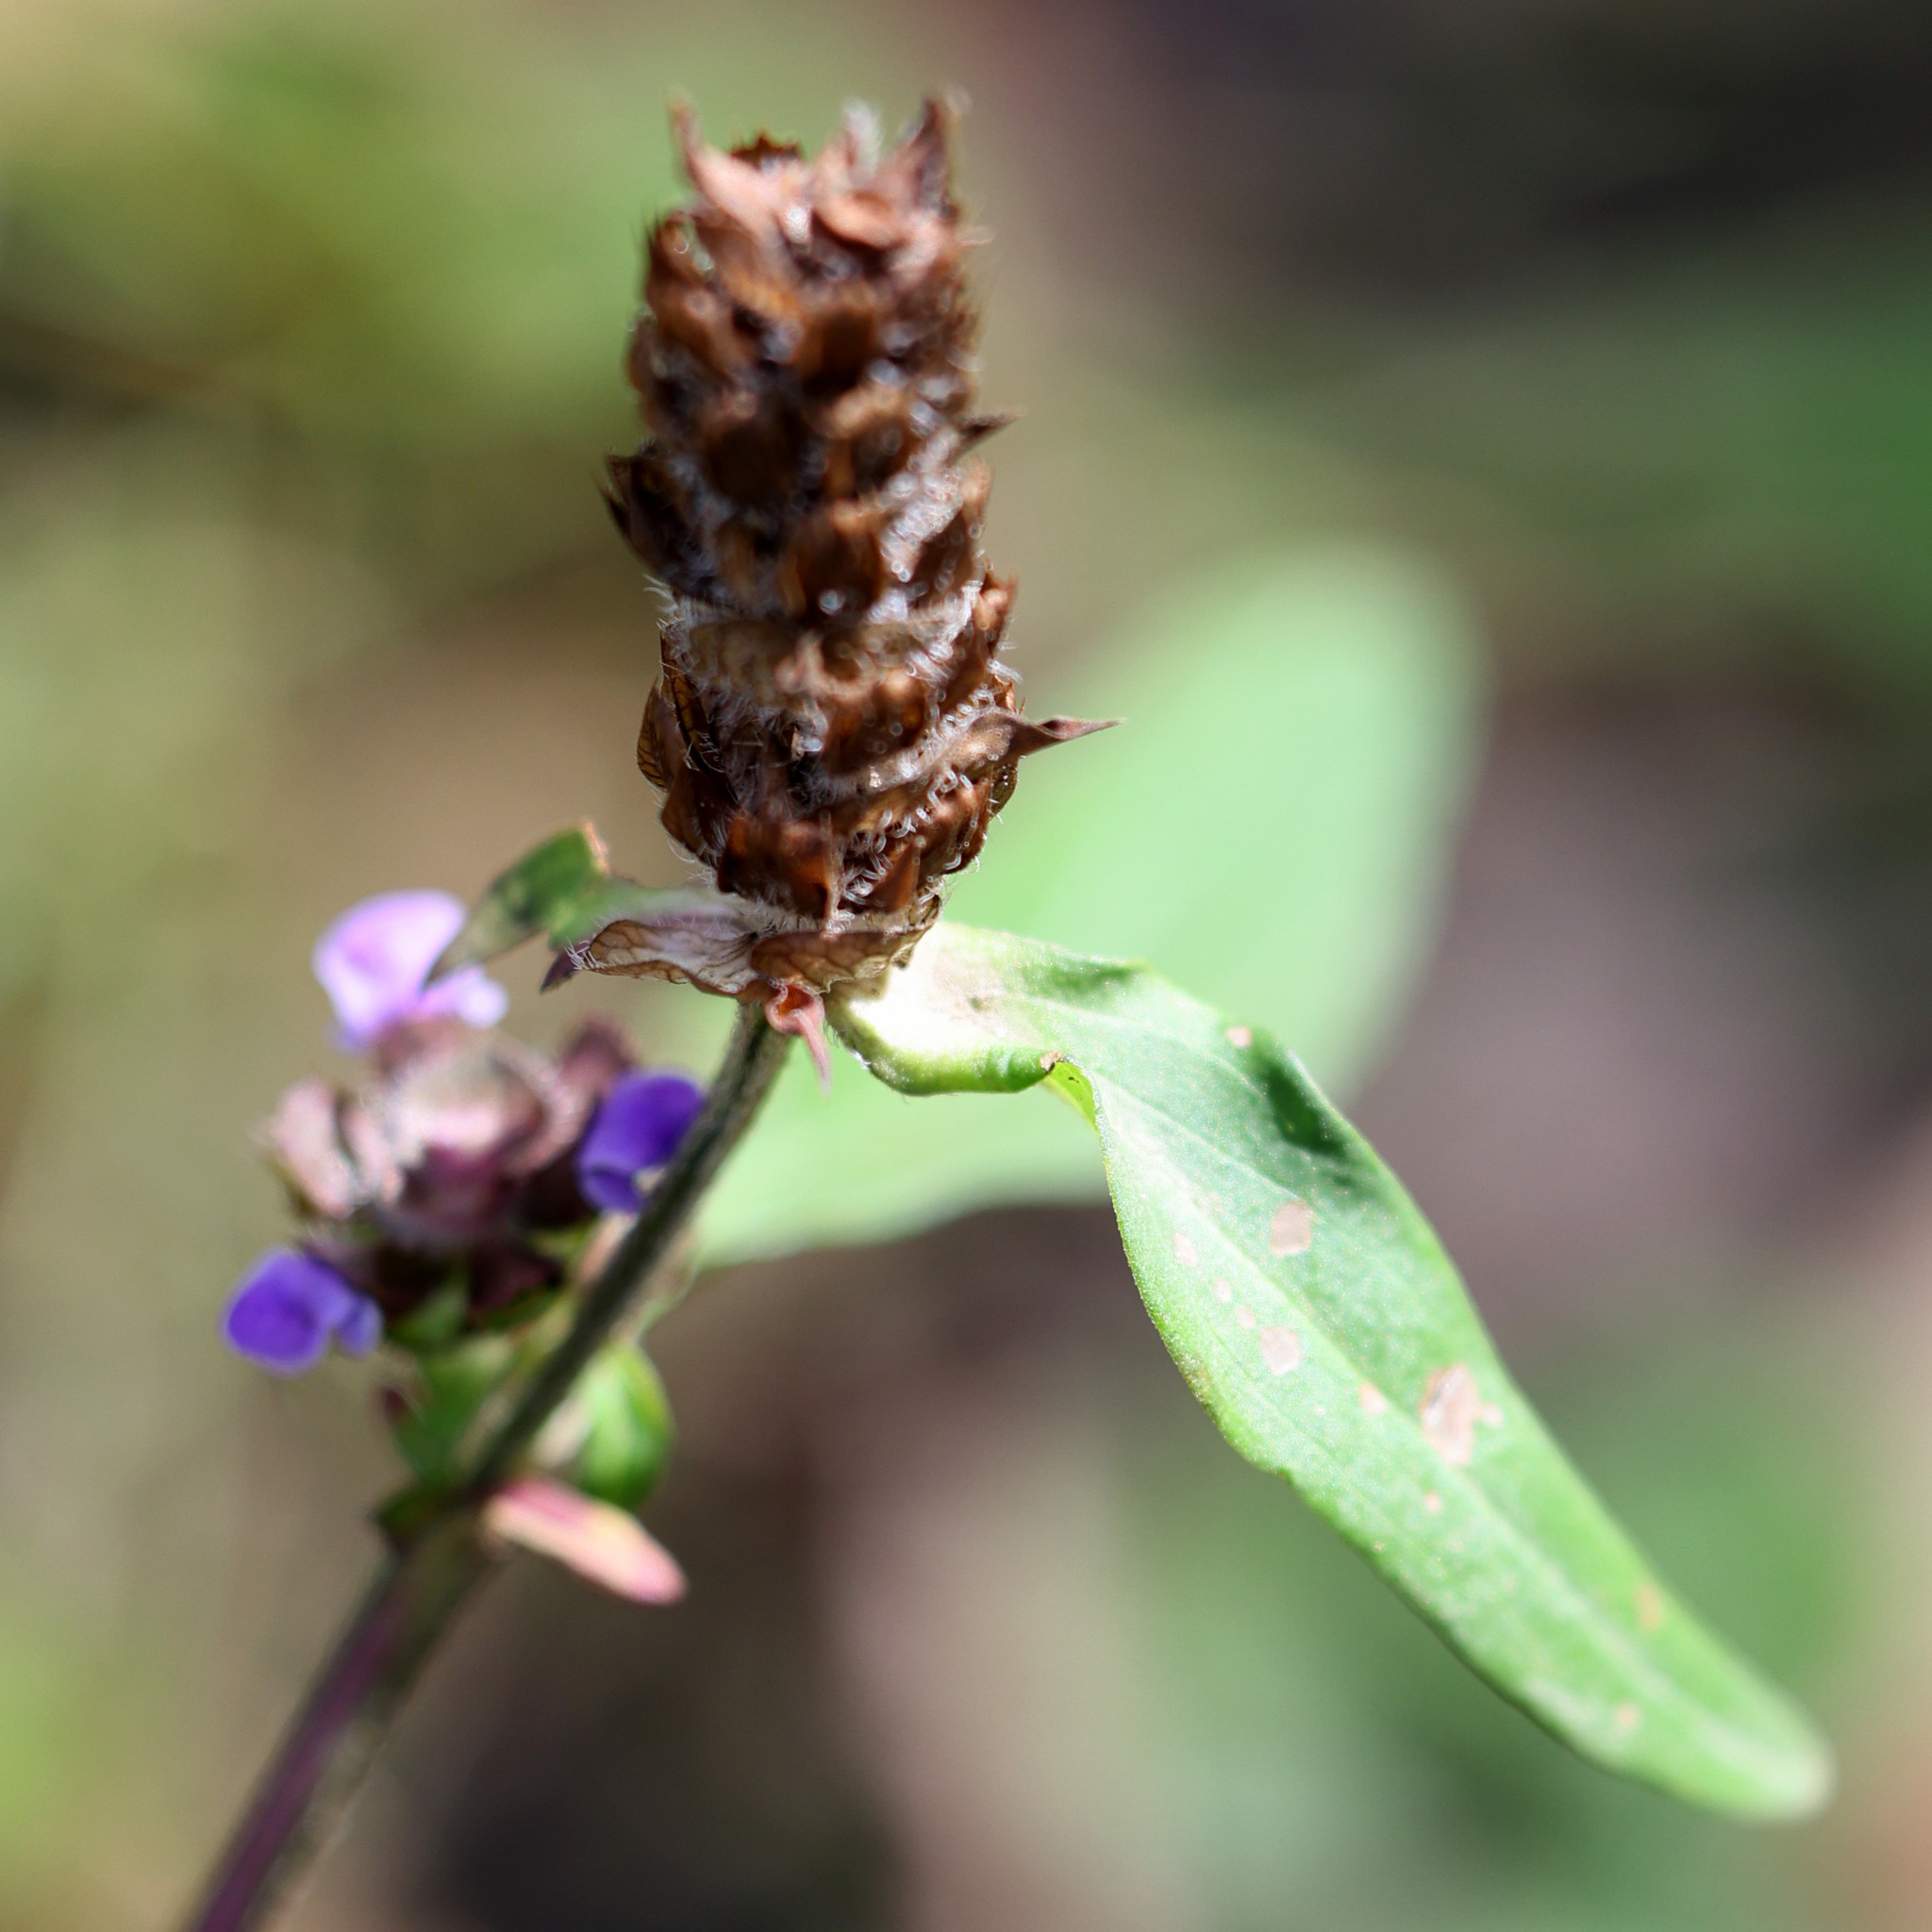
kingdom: Plantae
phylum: Tracheophyta
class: Magnoliopsida
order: Lamiales
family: Lamiaceae
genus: Prunella
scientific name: Prunella vulgaris
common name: Heal-all
